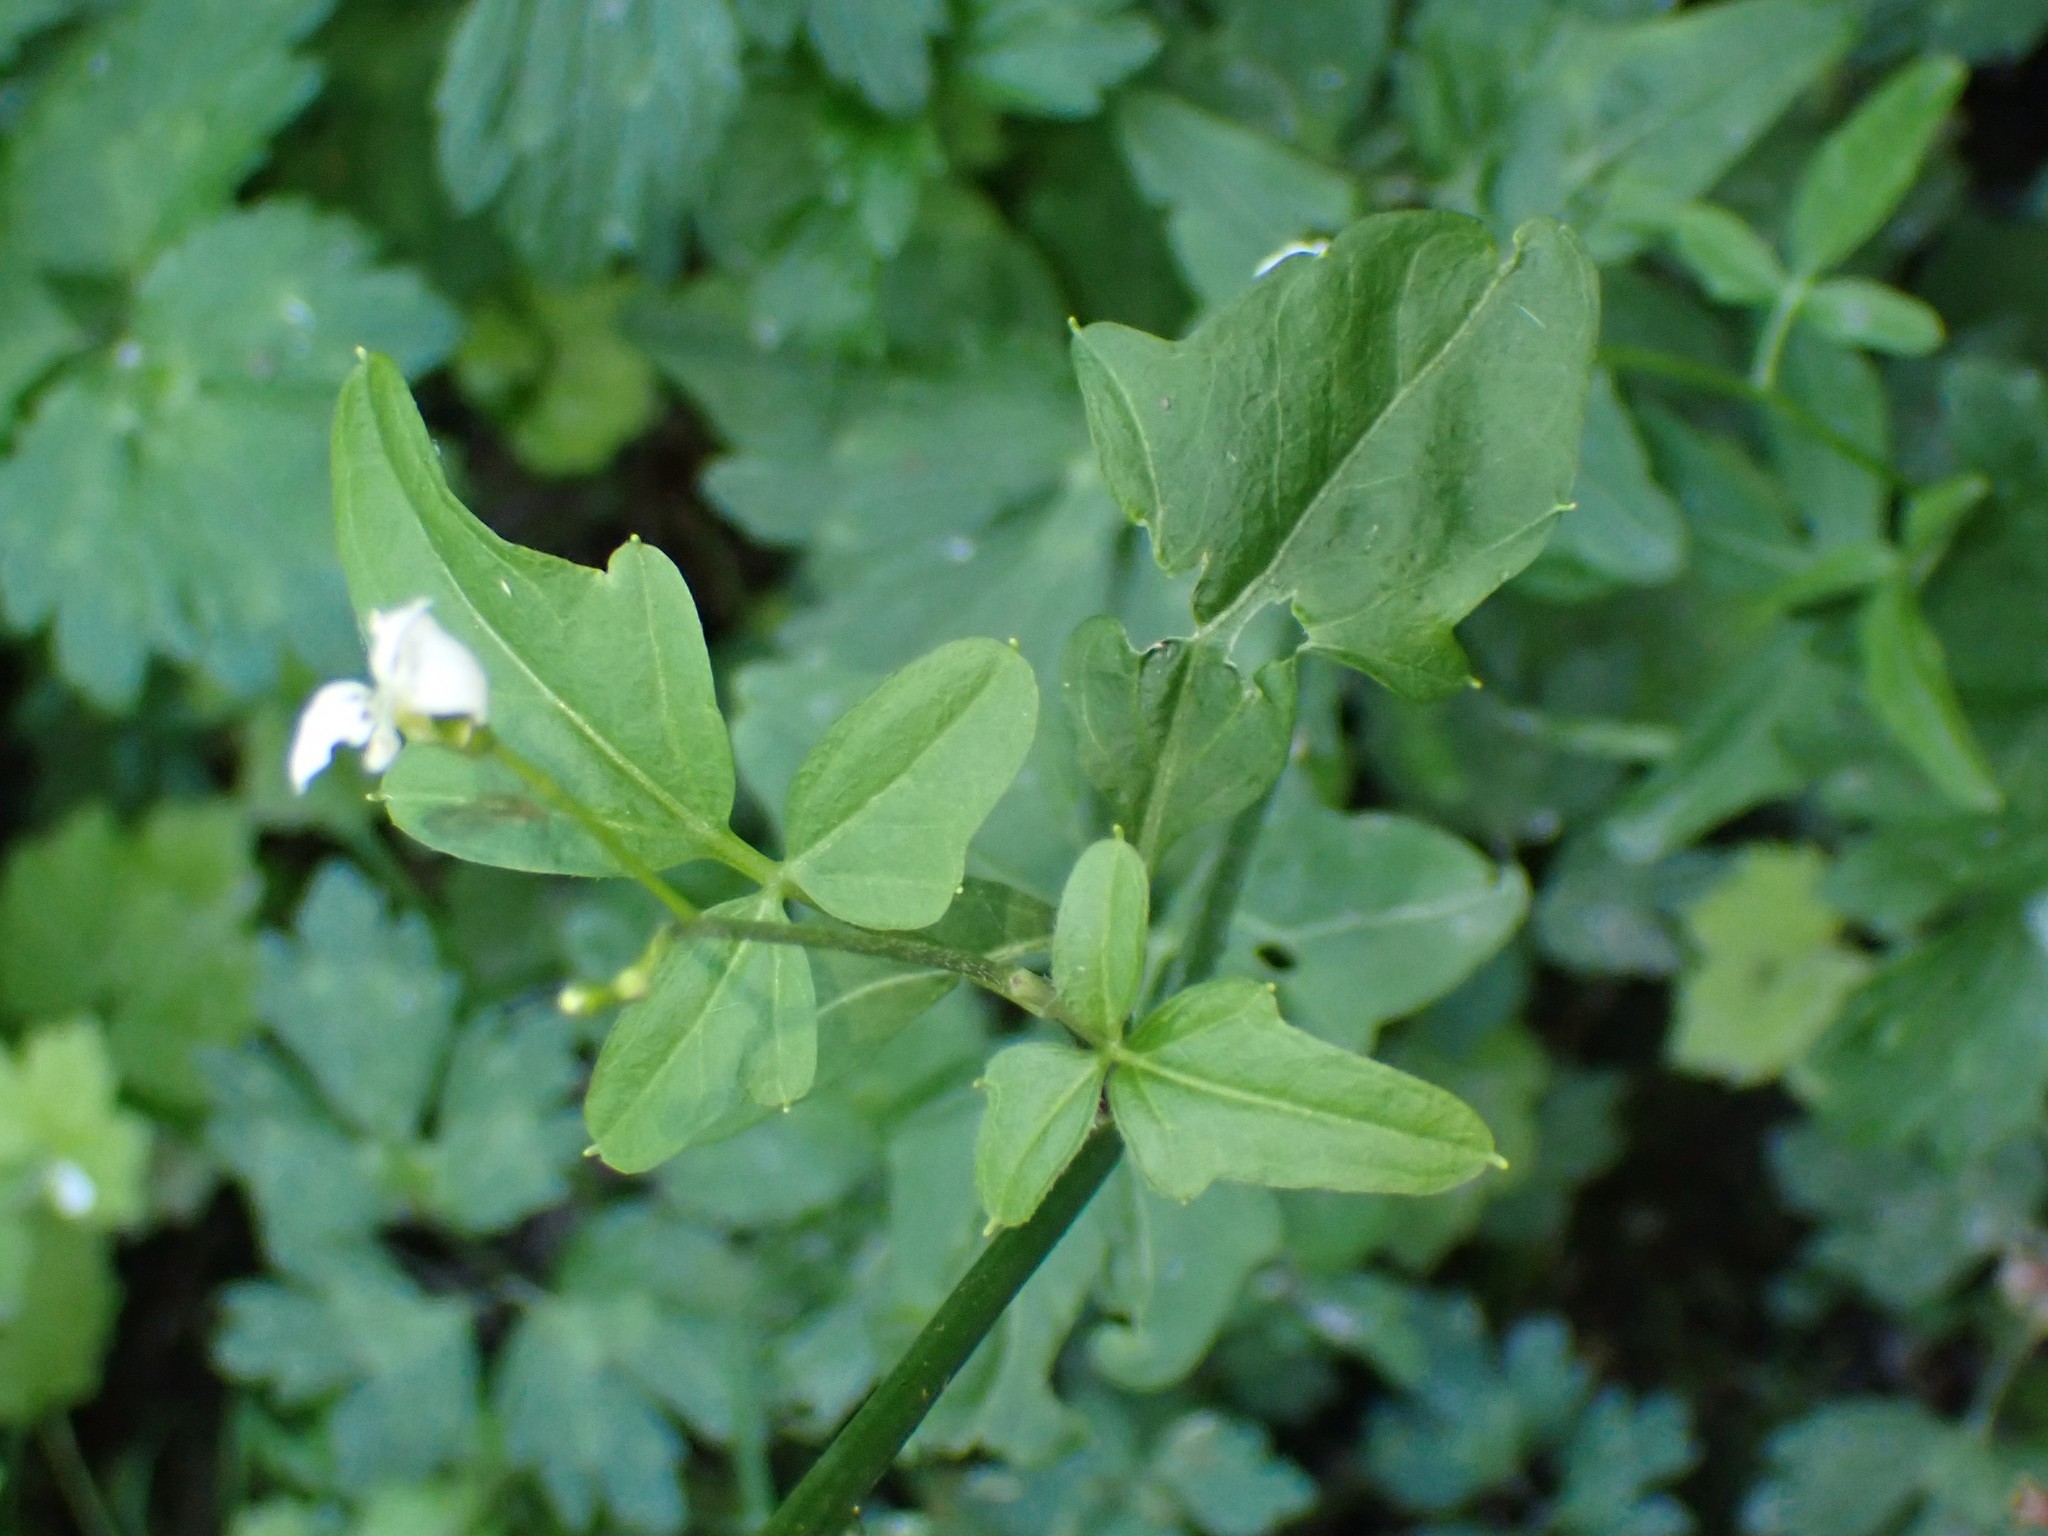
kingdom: Plantae
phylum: Tracheophyta
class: Magnoliopsida
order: Brassicales
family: Brassicaceae
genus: Cardamine
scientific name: Cardamine angulata
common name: Angled bittercress
